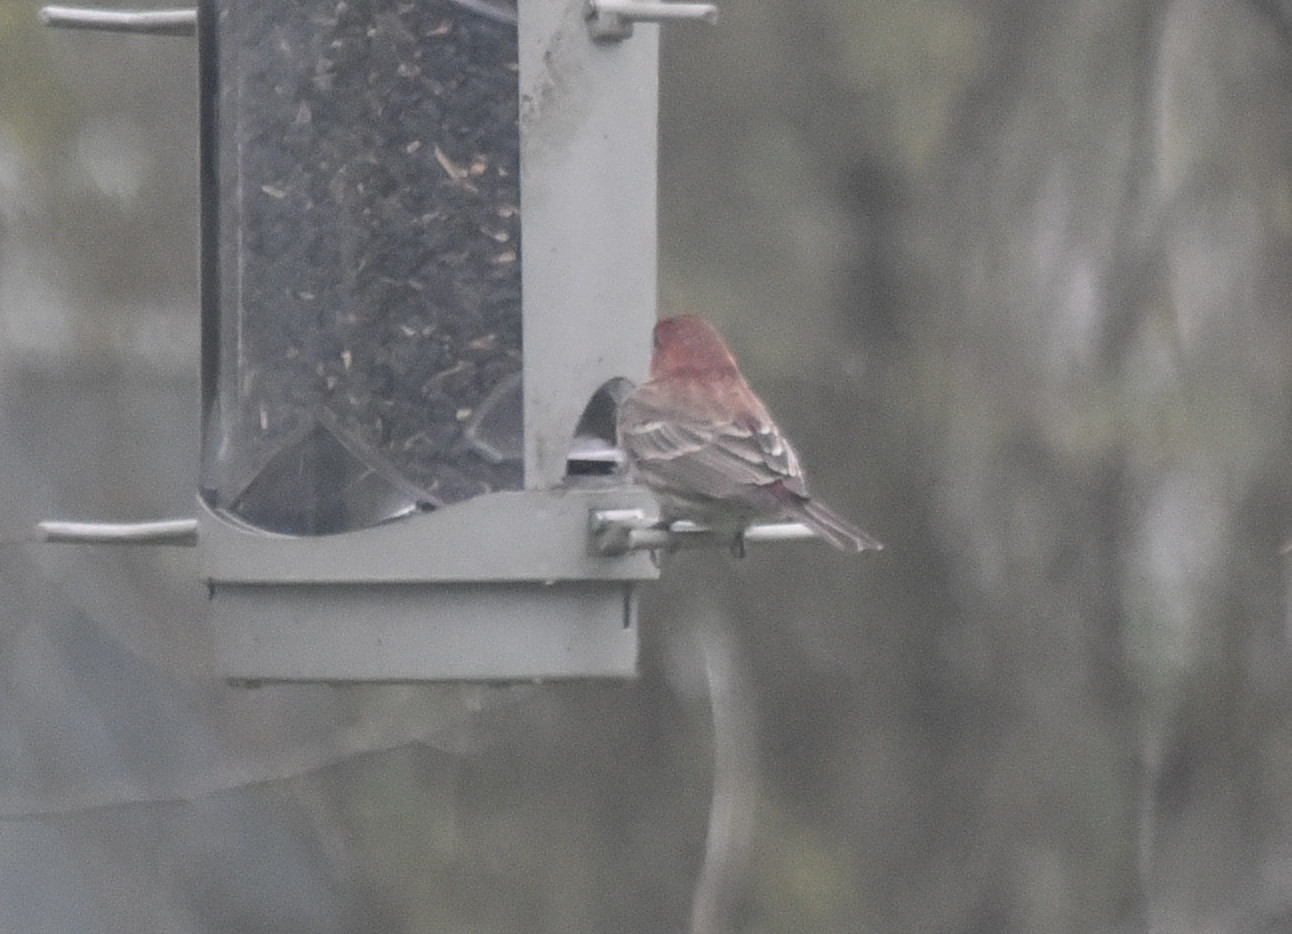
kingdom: Animalia
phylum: Chordata
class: Aves
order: Passeriformes
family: Fringillidae
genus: Haemorhous
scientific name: Haemorhous mexicanus
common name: House finch
